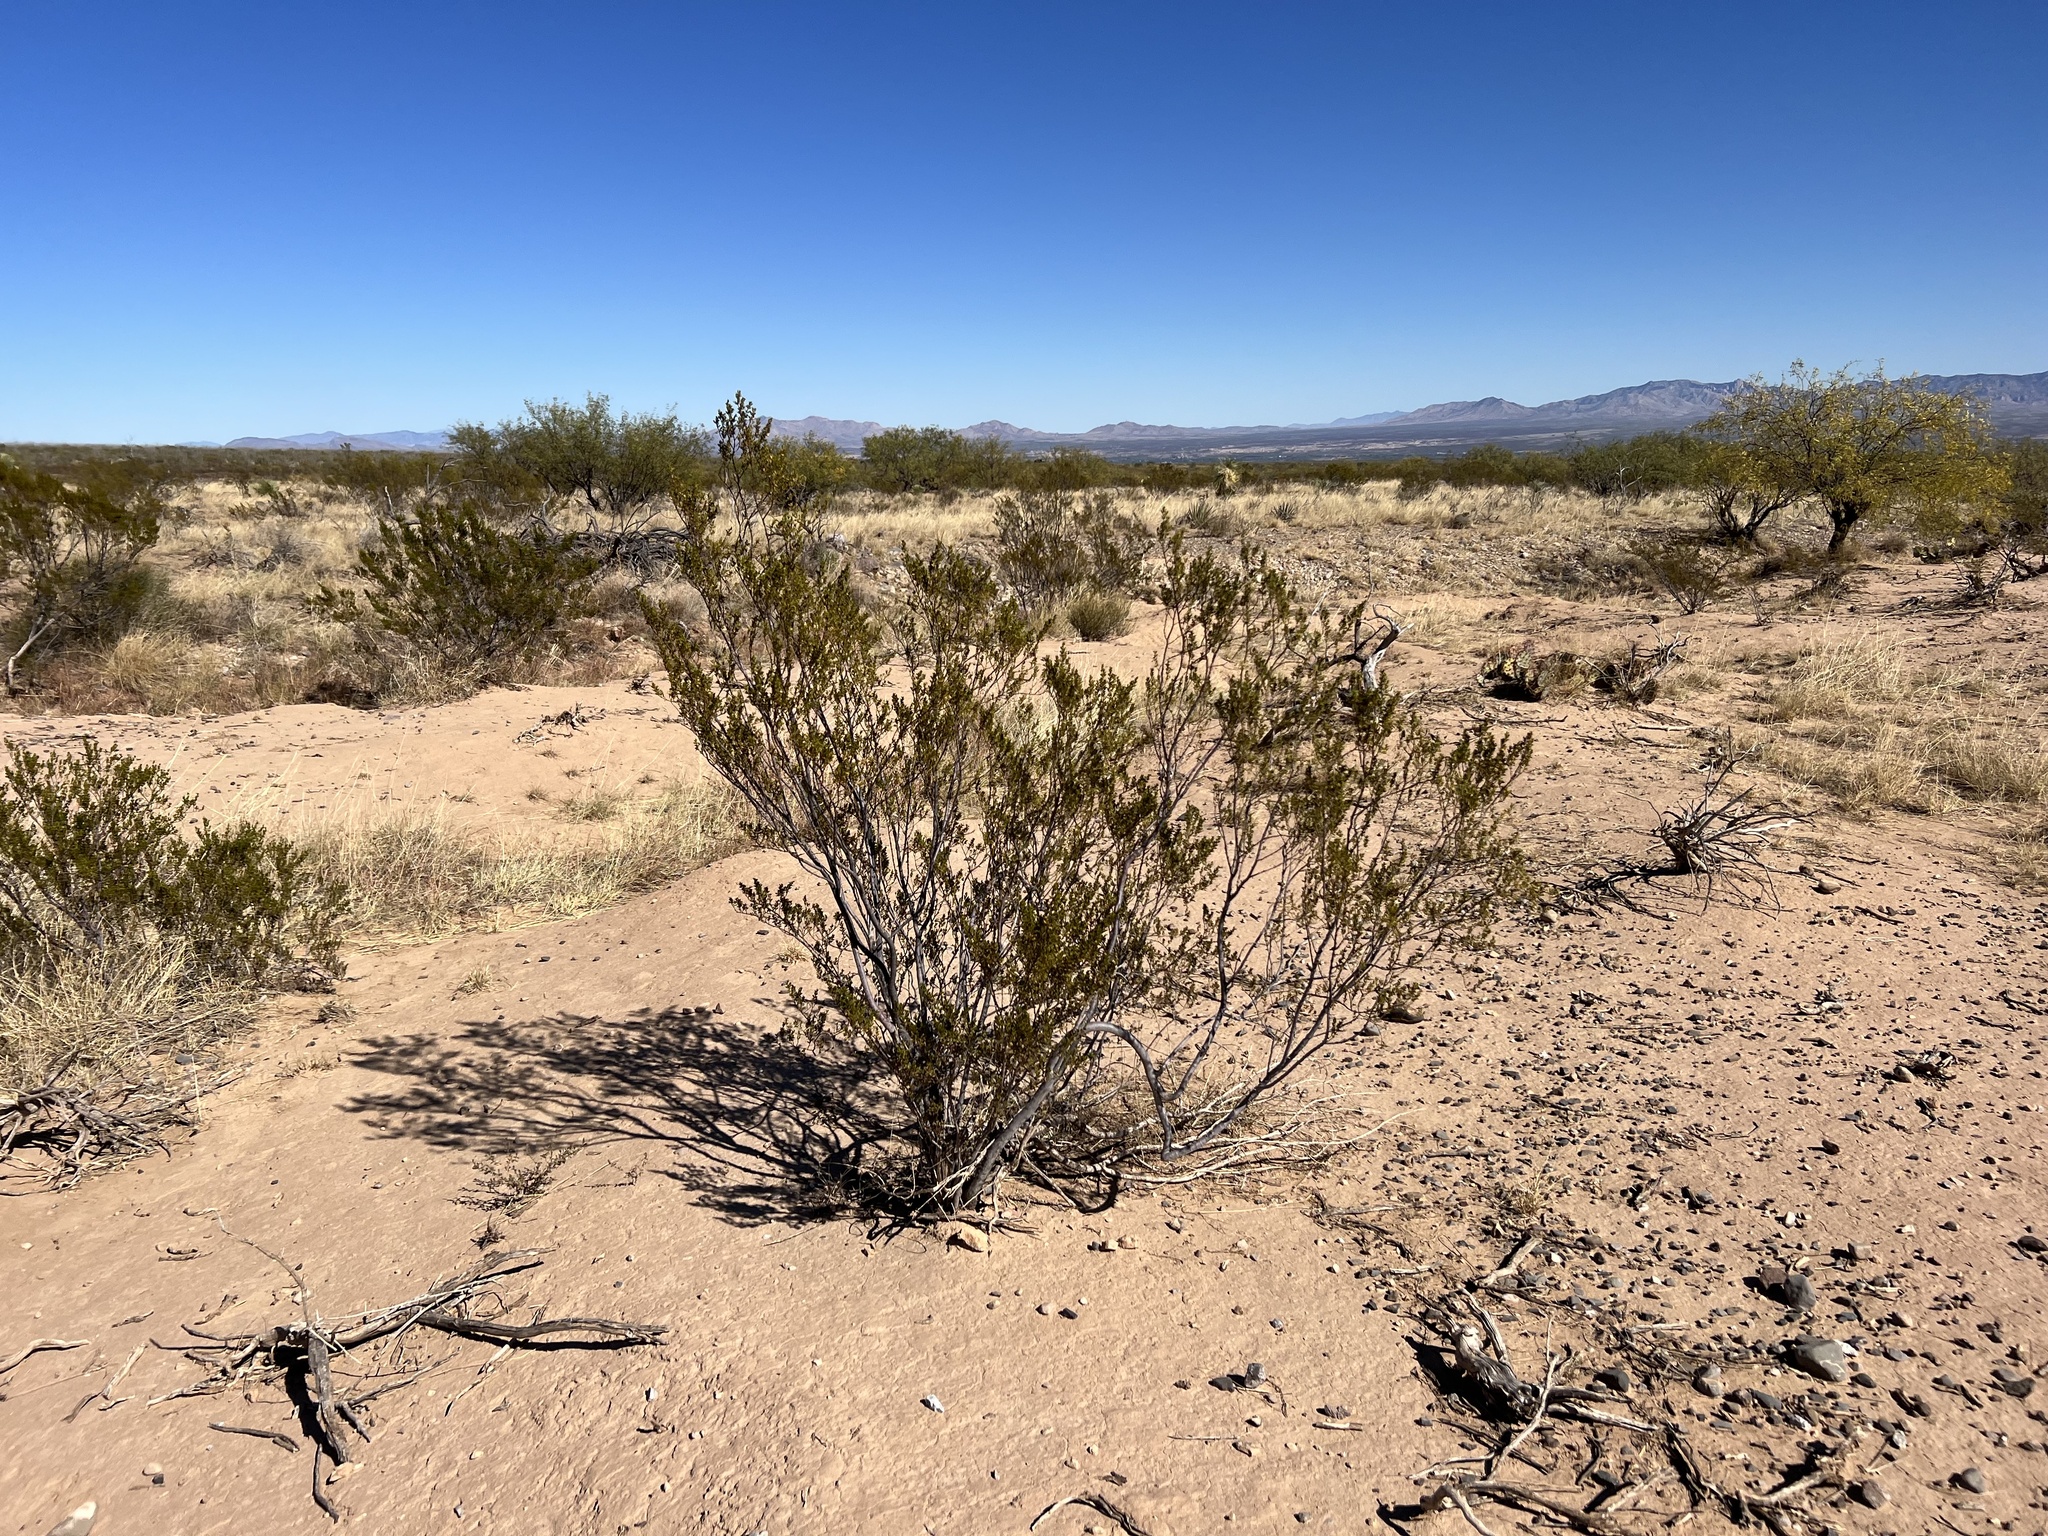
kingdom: Plantae
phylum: Tracheophyta
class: Magnoliopsida
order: Zygophyllales
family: Zygophyllaceae
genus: Larrea
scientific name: Larrea tridentata
